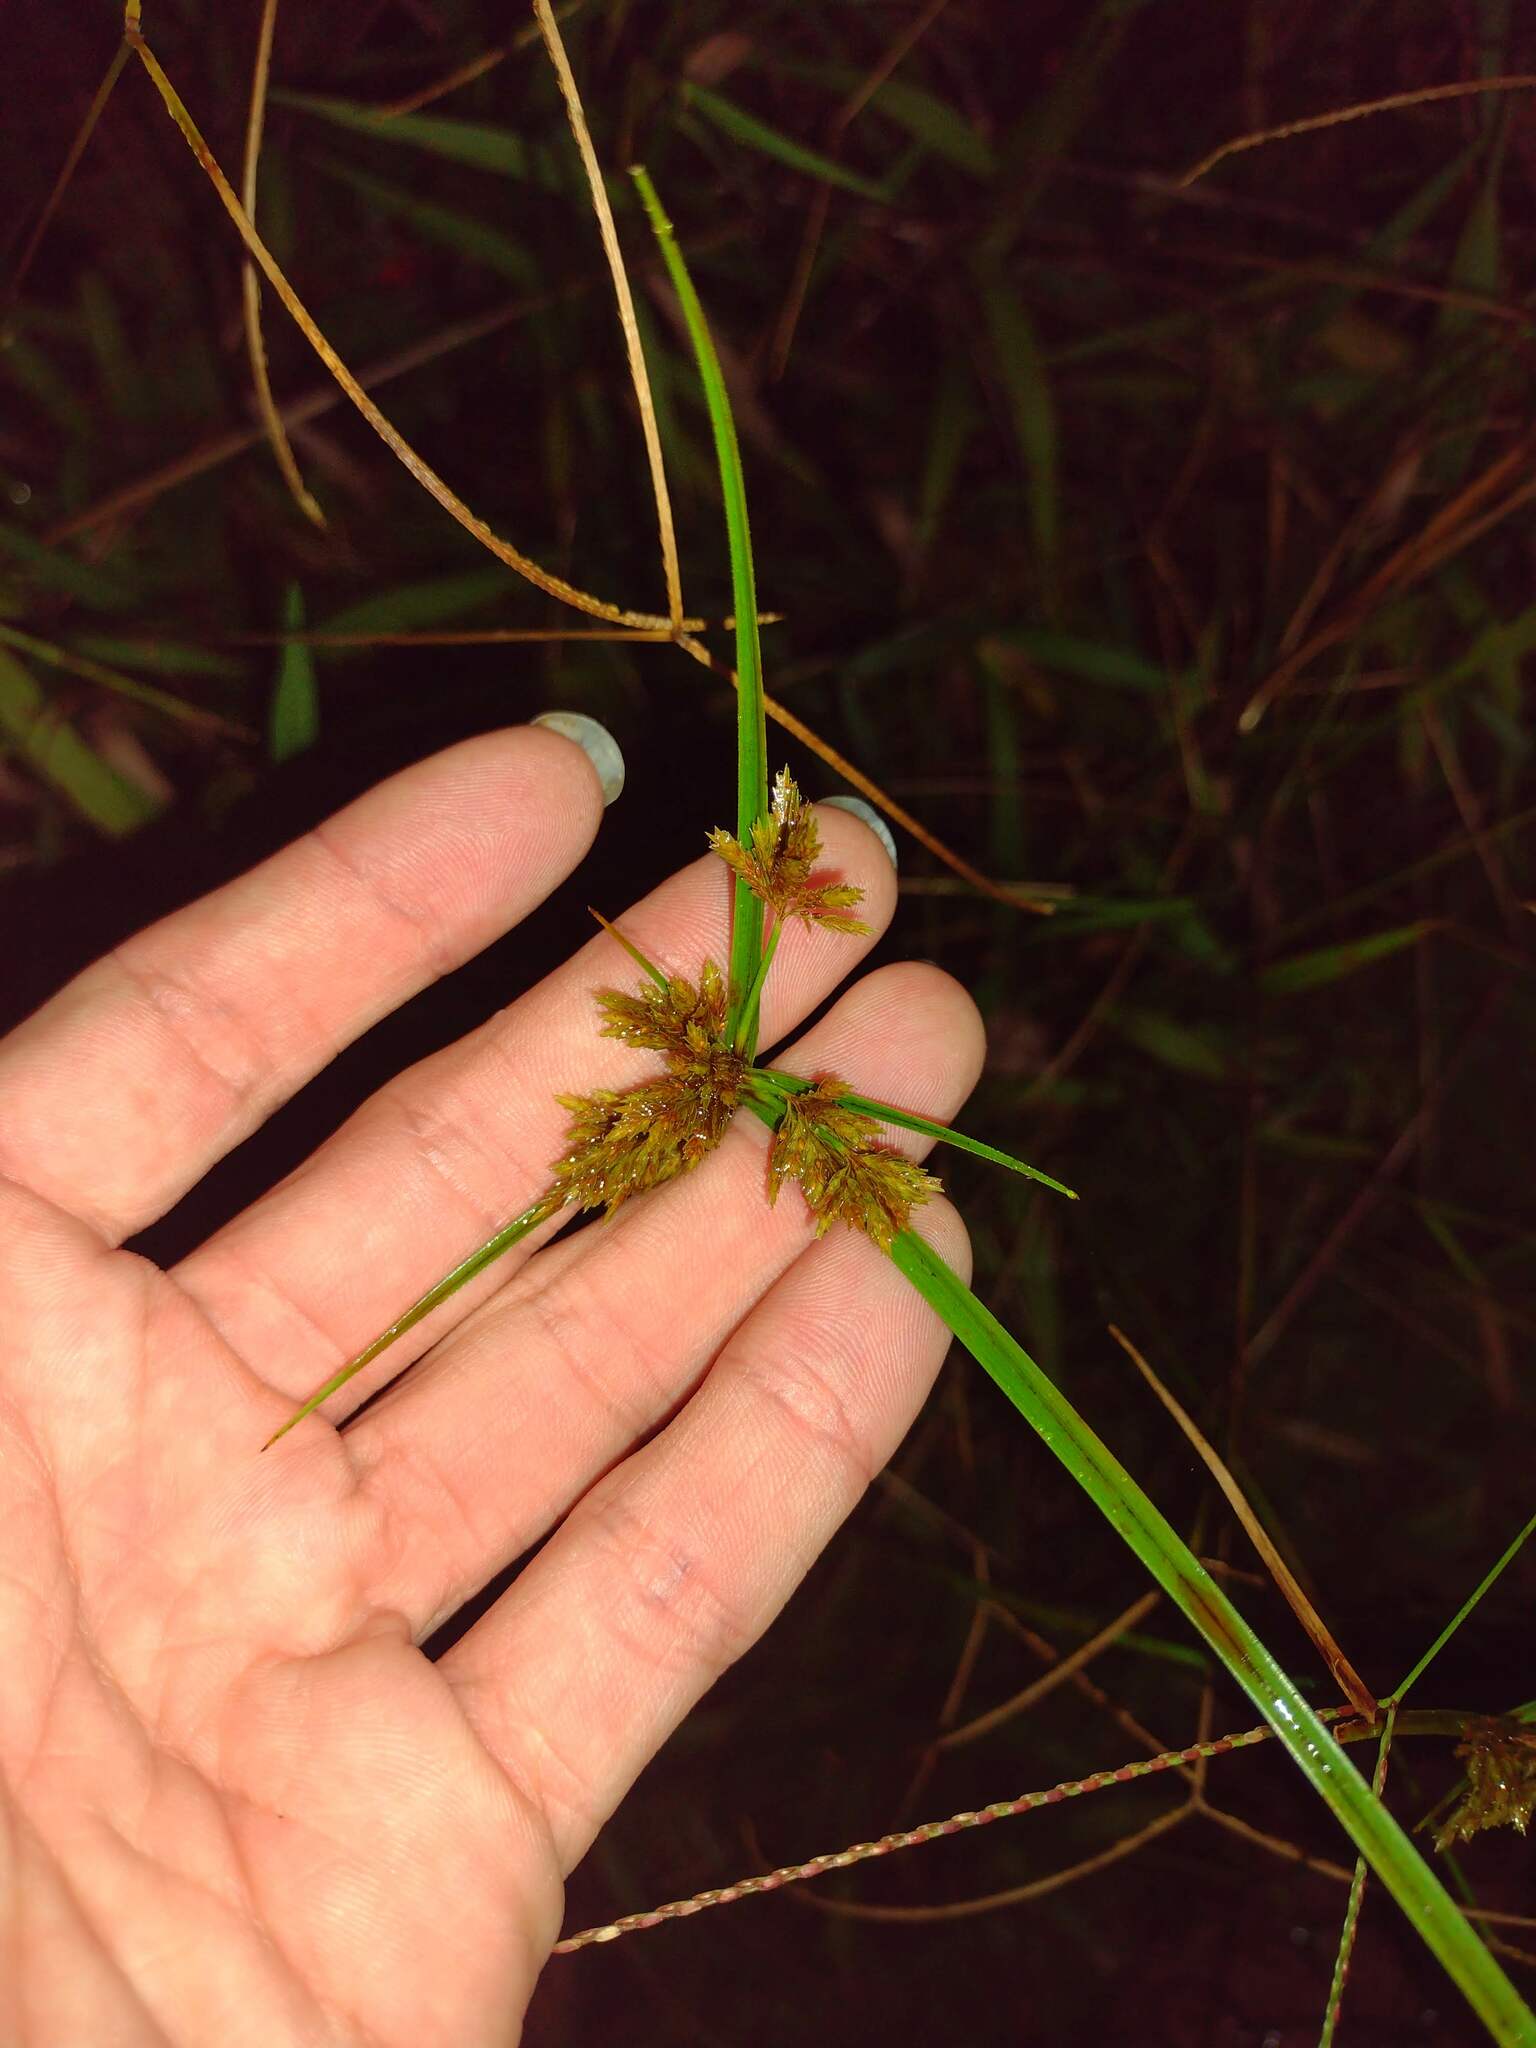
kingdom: Plantae
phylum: Tracheophyta
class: Liliopsida
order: Poales
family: Cyperaceae
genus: Cyperus
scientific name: Cyperus polystachyos
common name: Bunchy flat sedge
